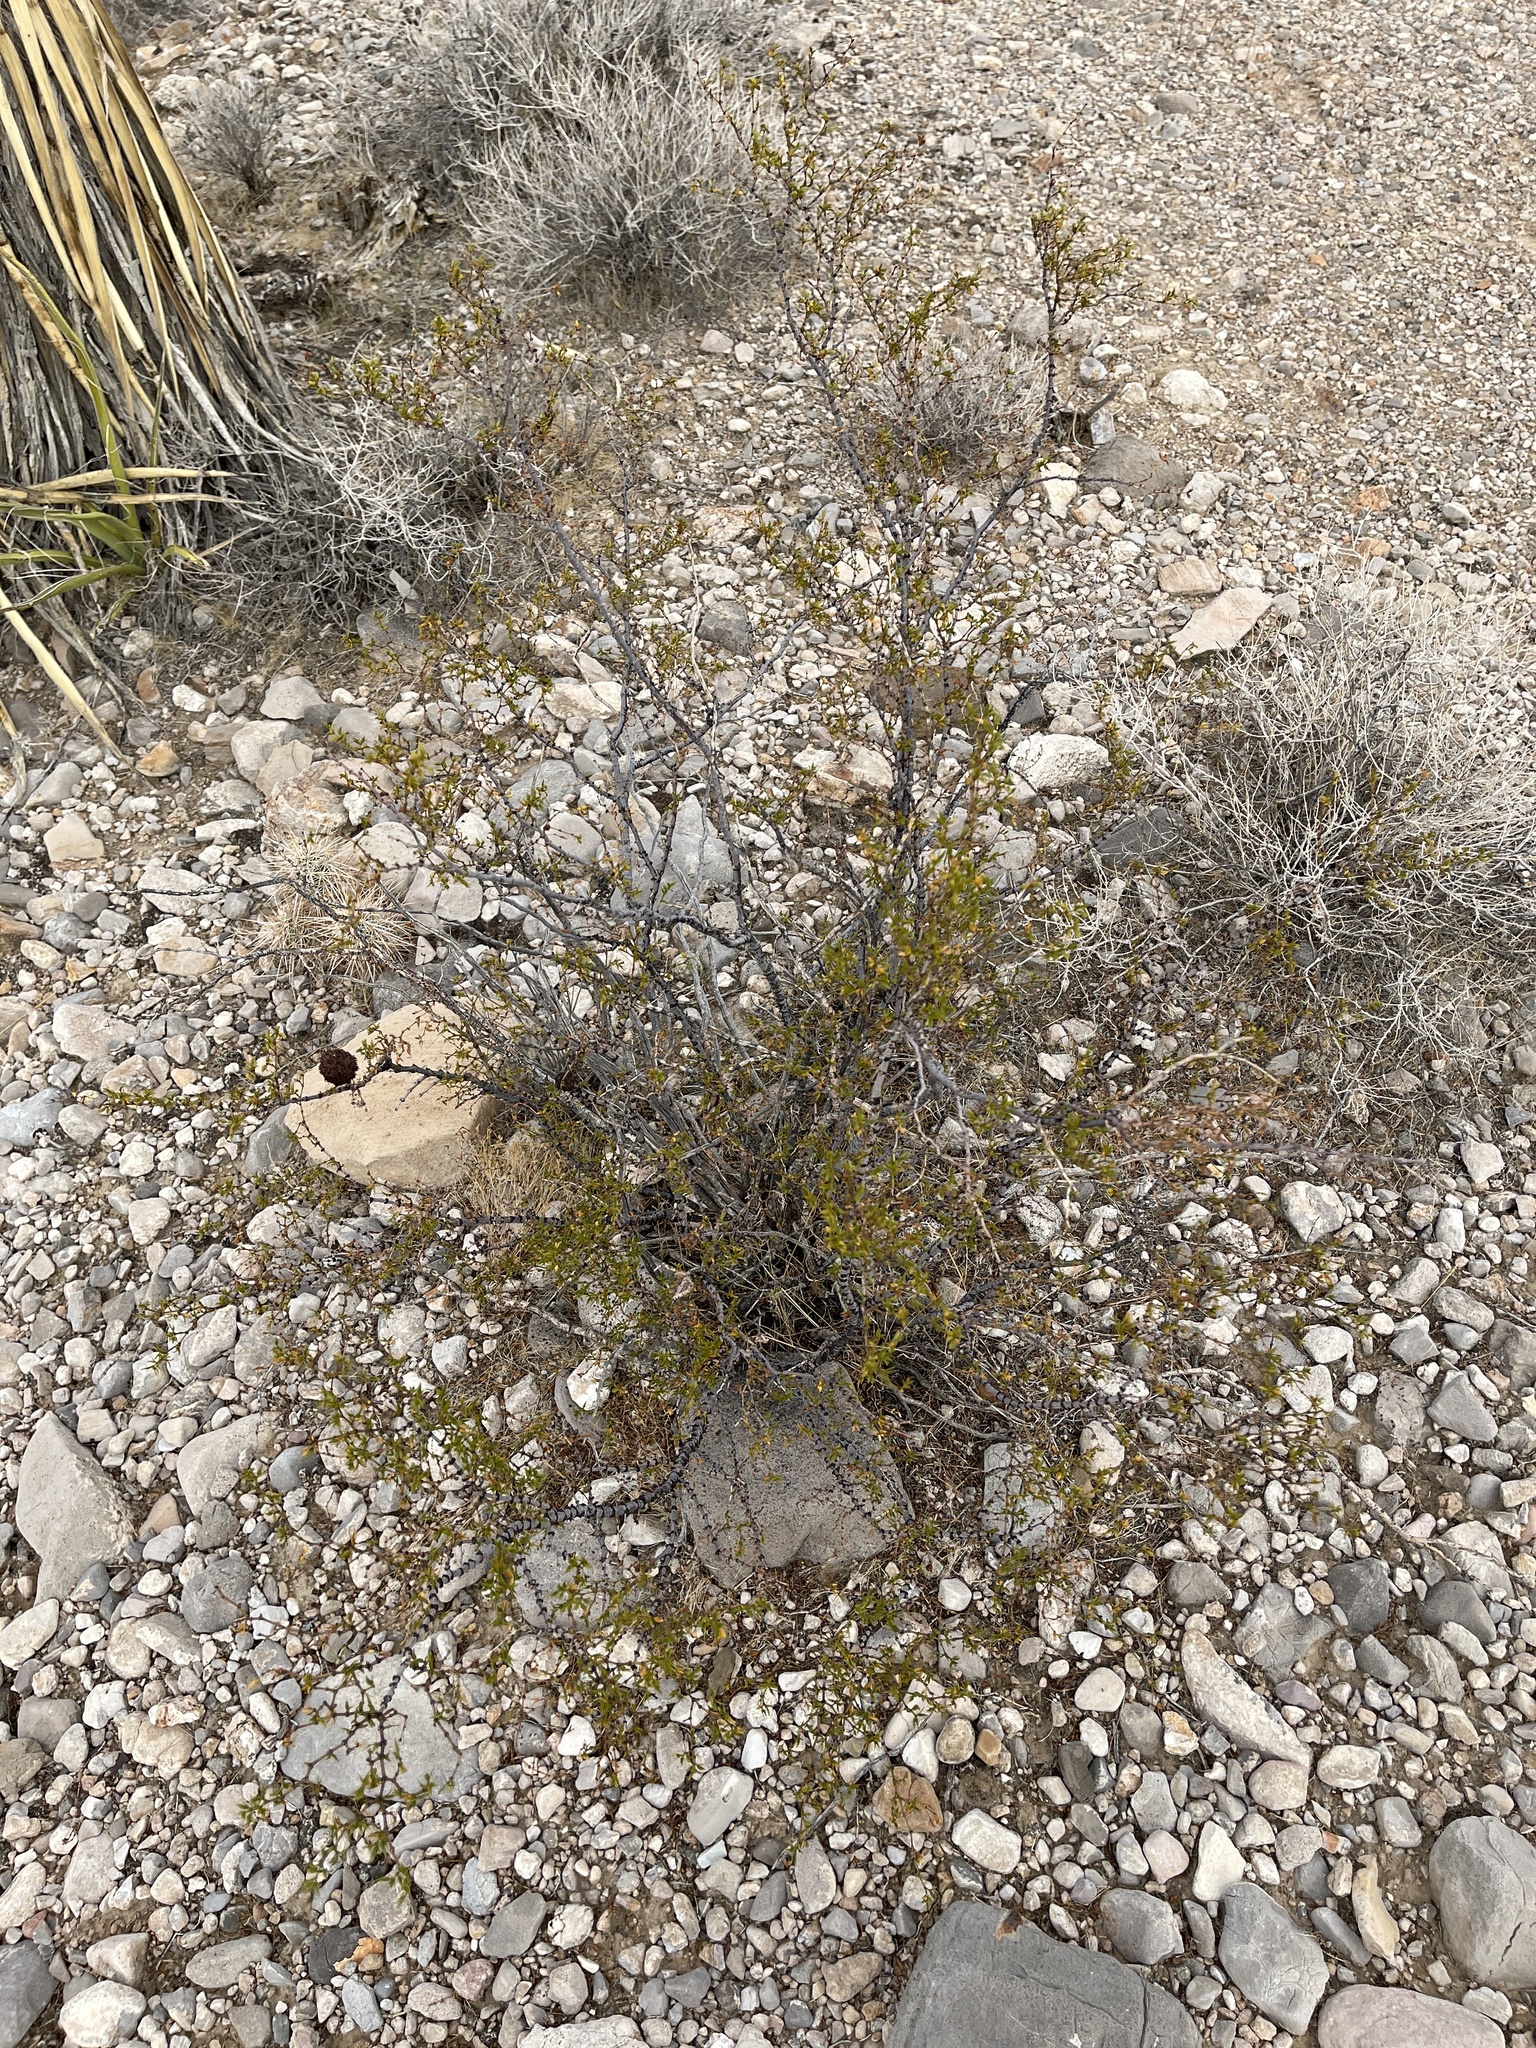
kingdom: Plantae
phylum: Tracheophyta
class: Magnoliopsida
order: Zygophyllales
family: Zygophyllaceae
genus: Larrea
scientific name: Larrea tridentata
